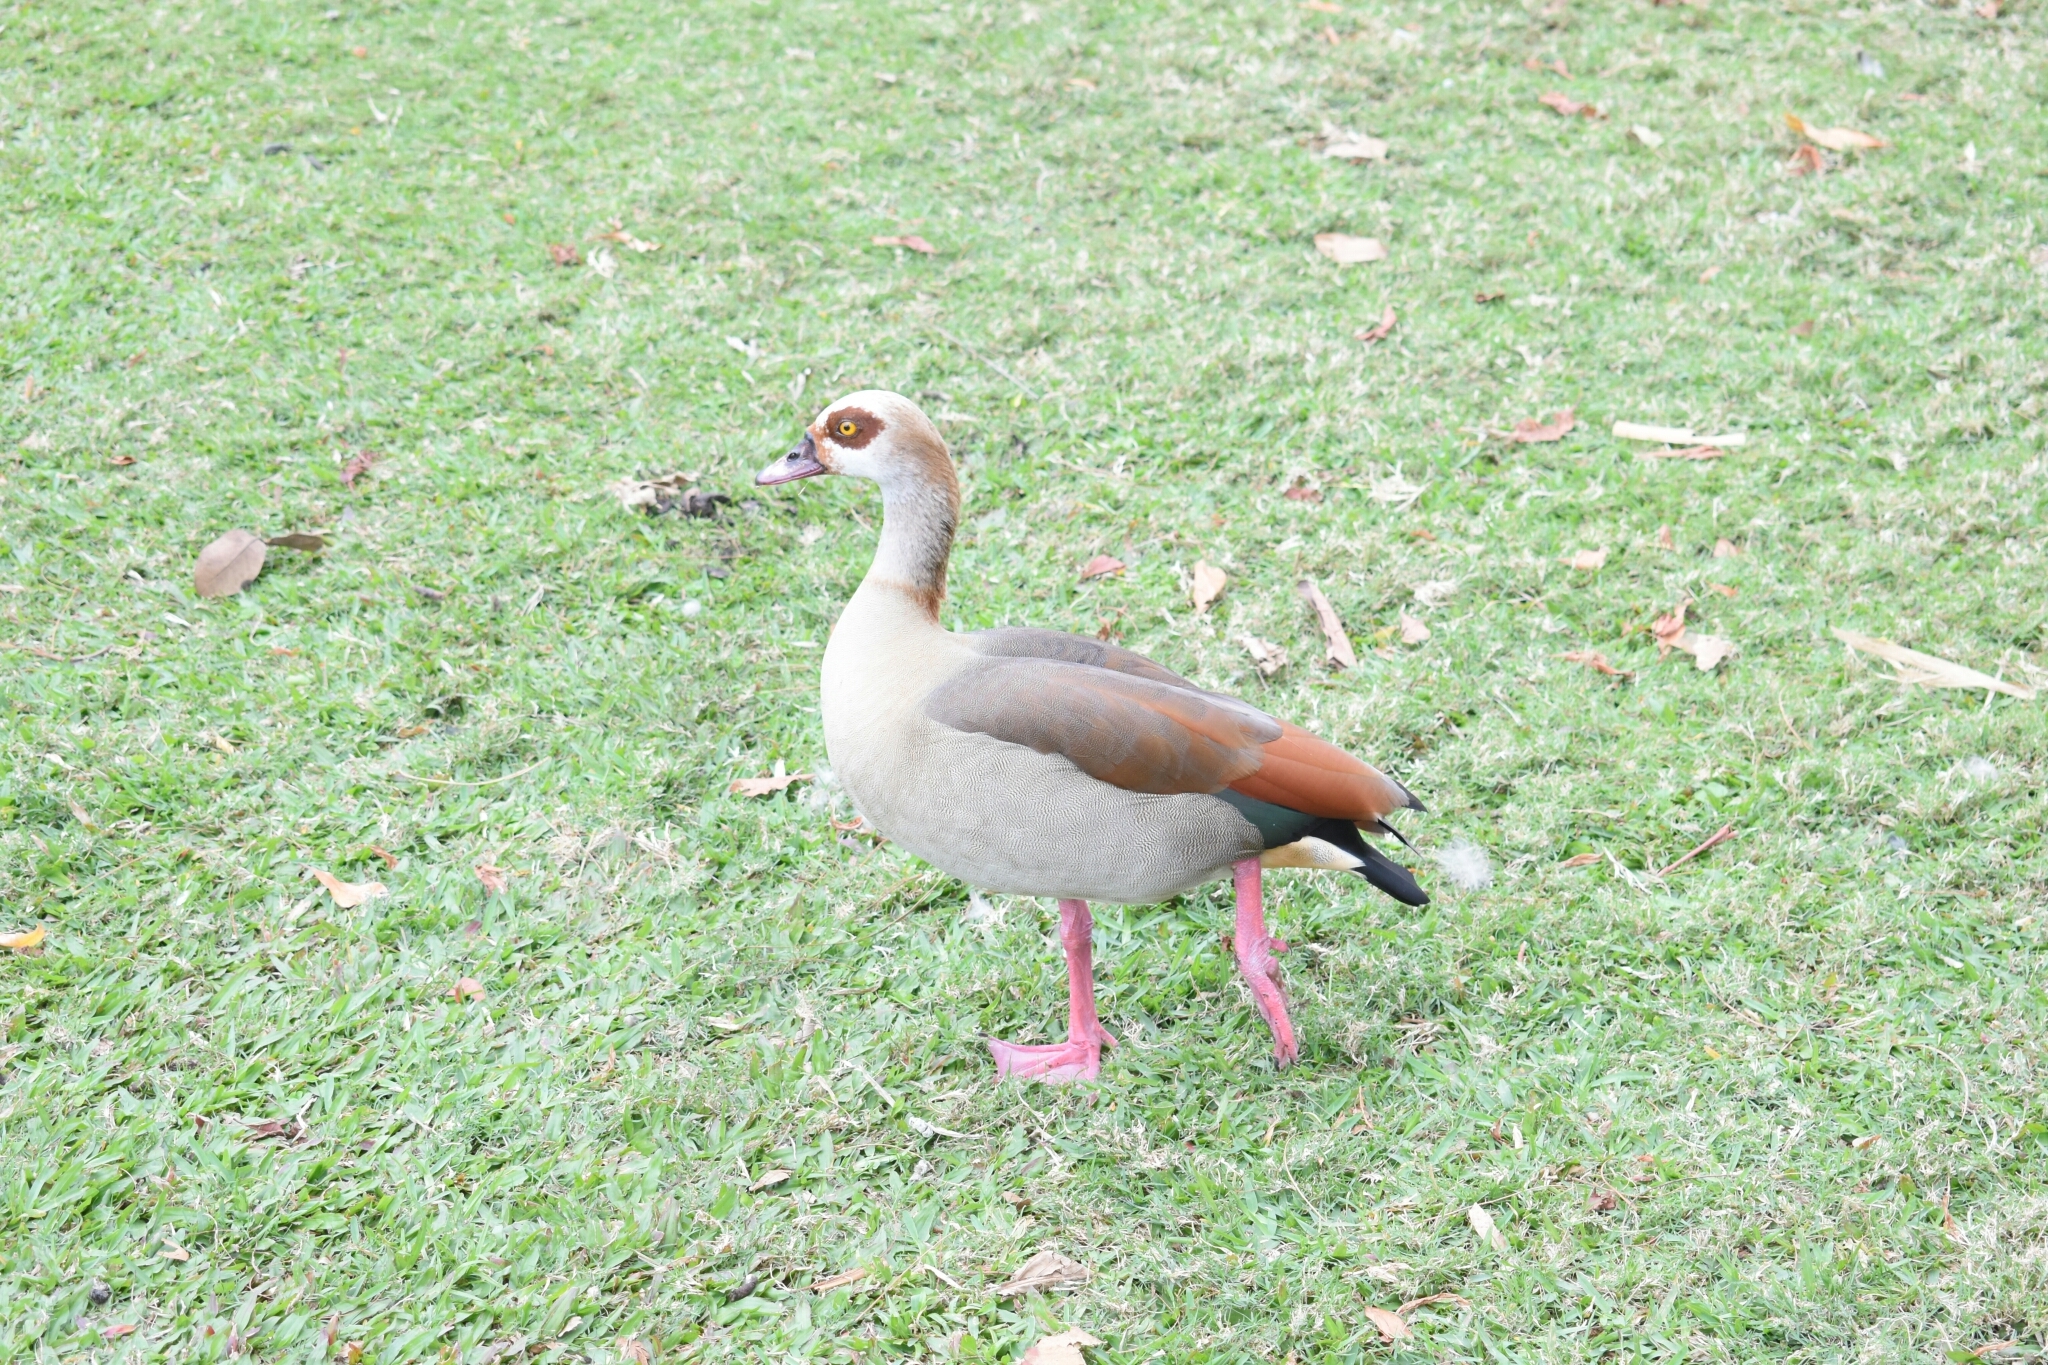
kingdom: Animalia
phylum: Chordata
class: Aves
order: Anseriformes
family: Anatidae
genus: Alopochen
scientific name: Alopochen aegyptiaca
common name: Egyptian goose
